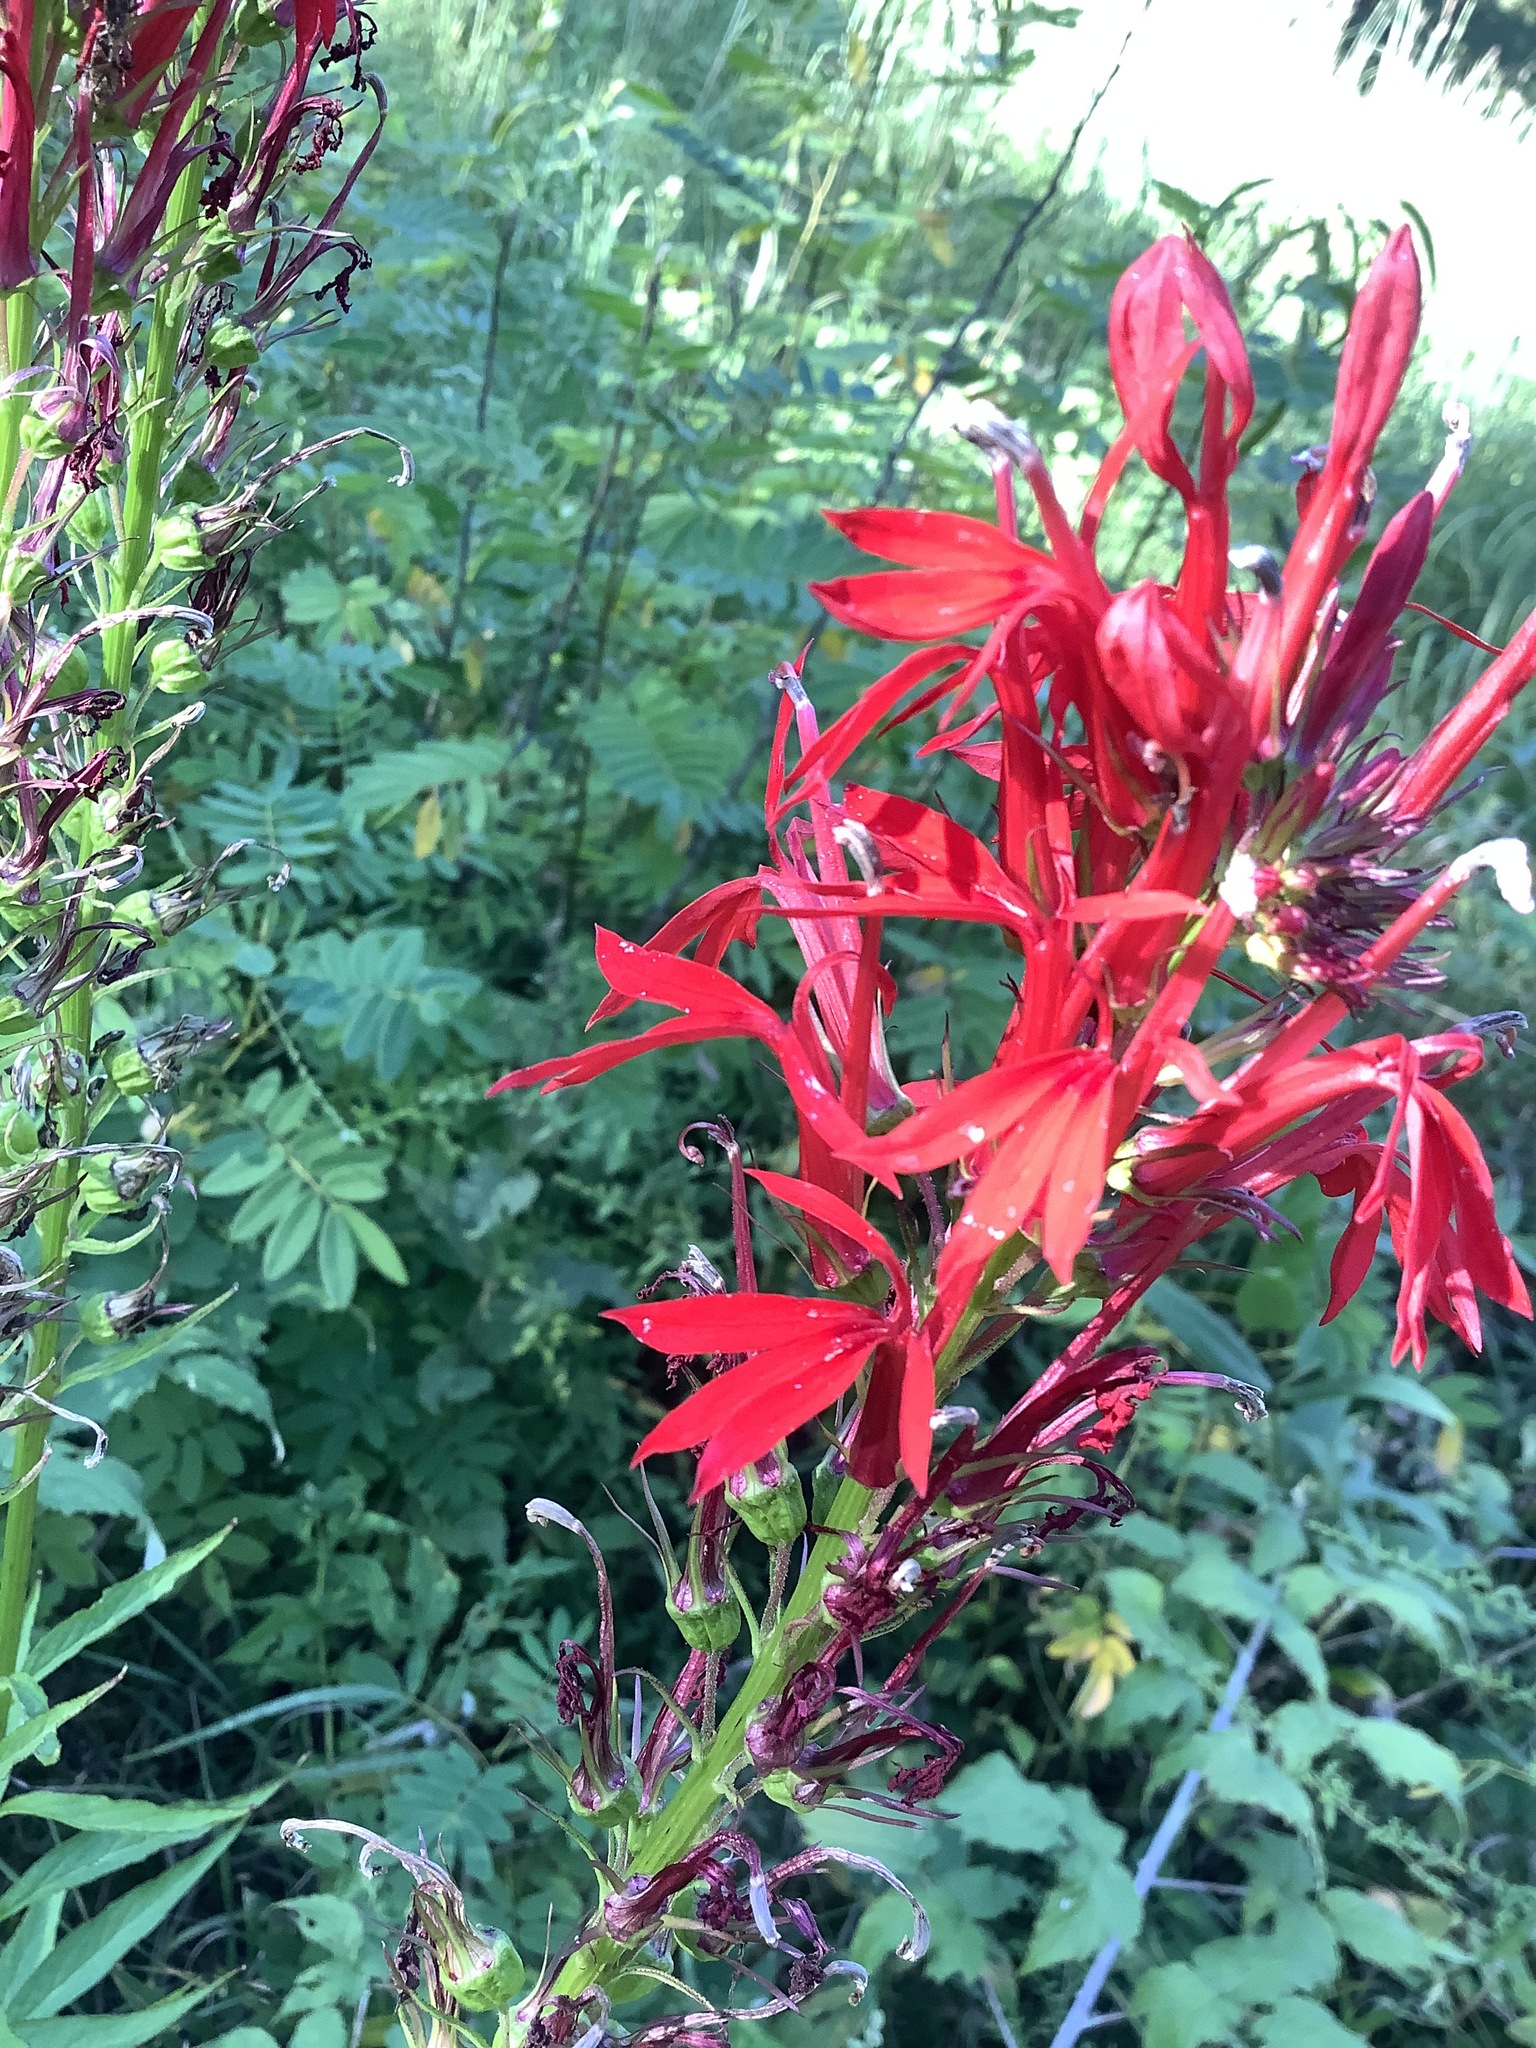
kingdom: Plantae
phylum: Tracheophyta
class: Magnoliopsida
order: Asterales
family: Campanulaceae
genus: Lobelia
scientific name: Lobelia cardinalis
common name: Cardinal flower
